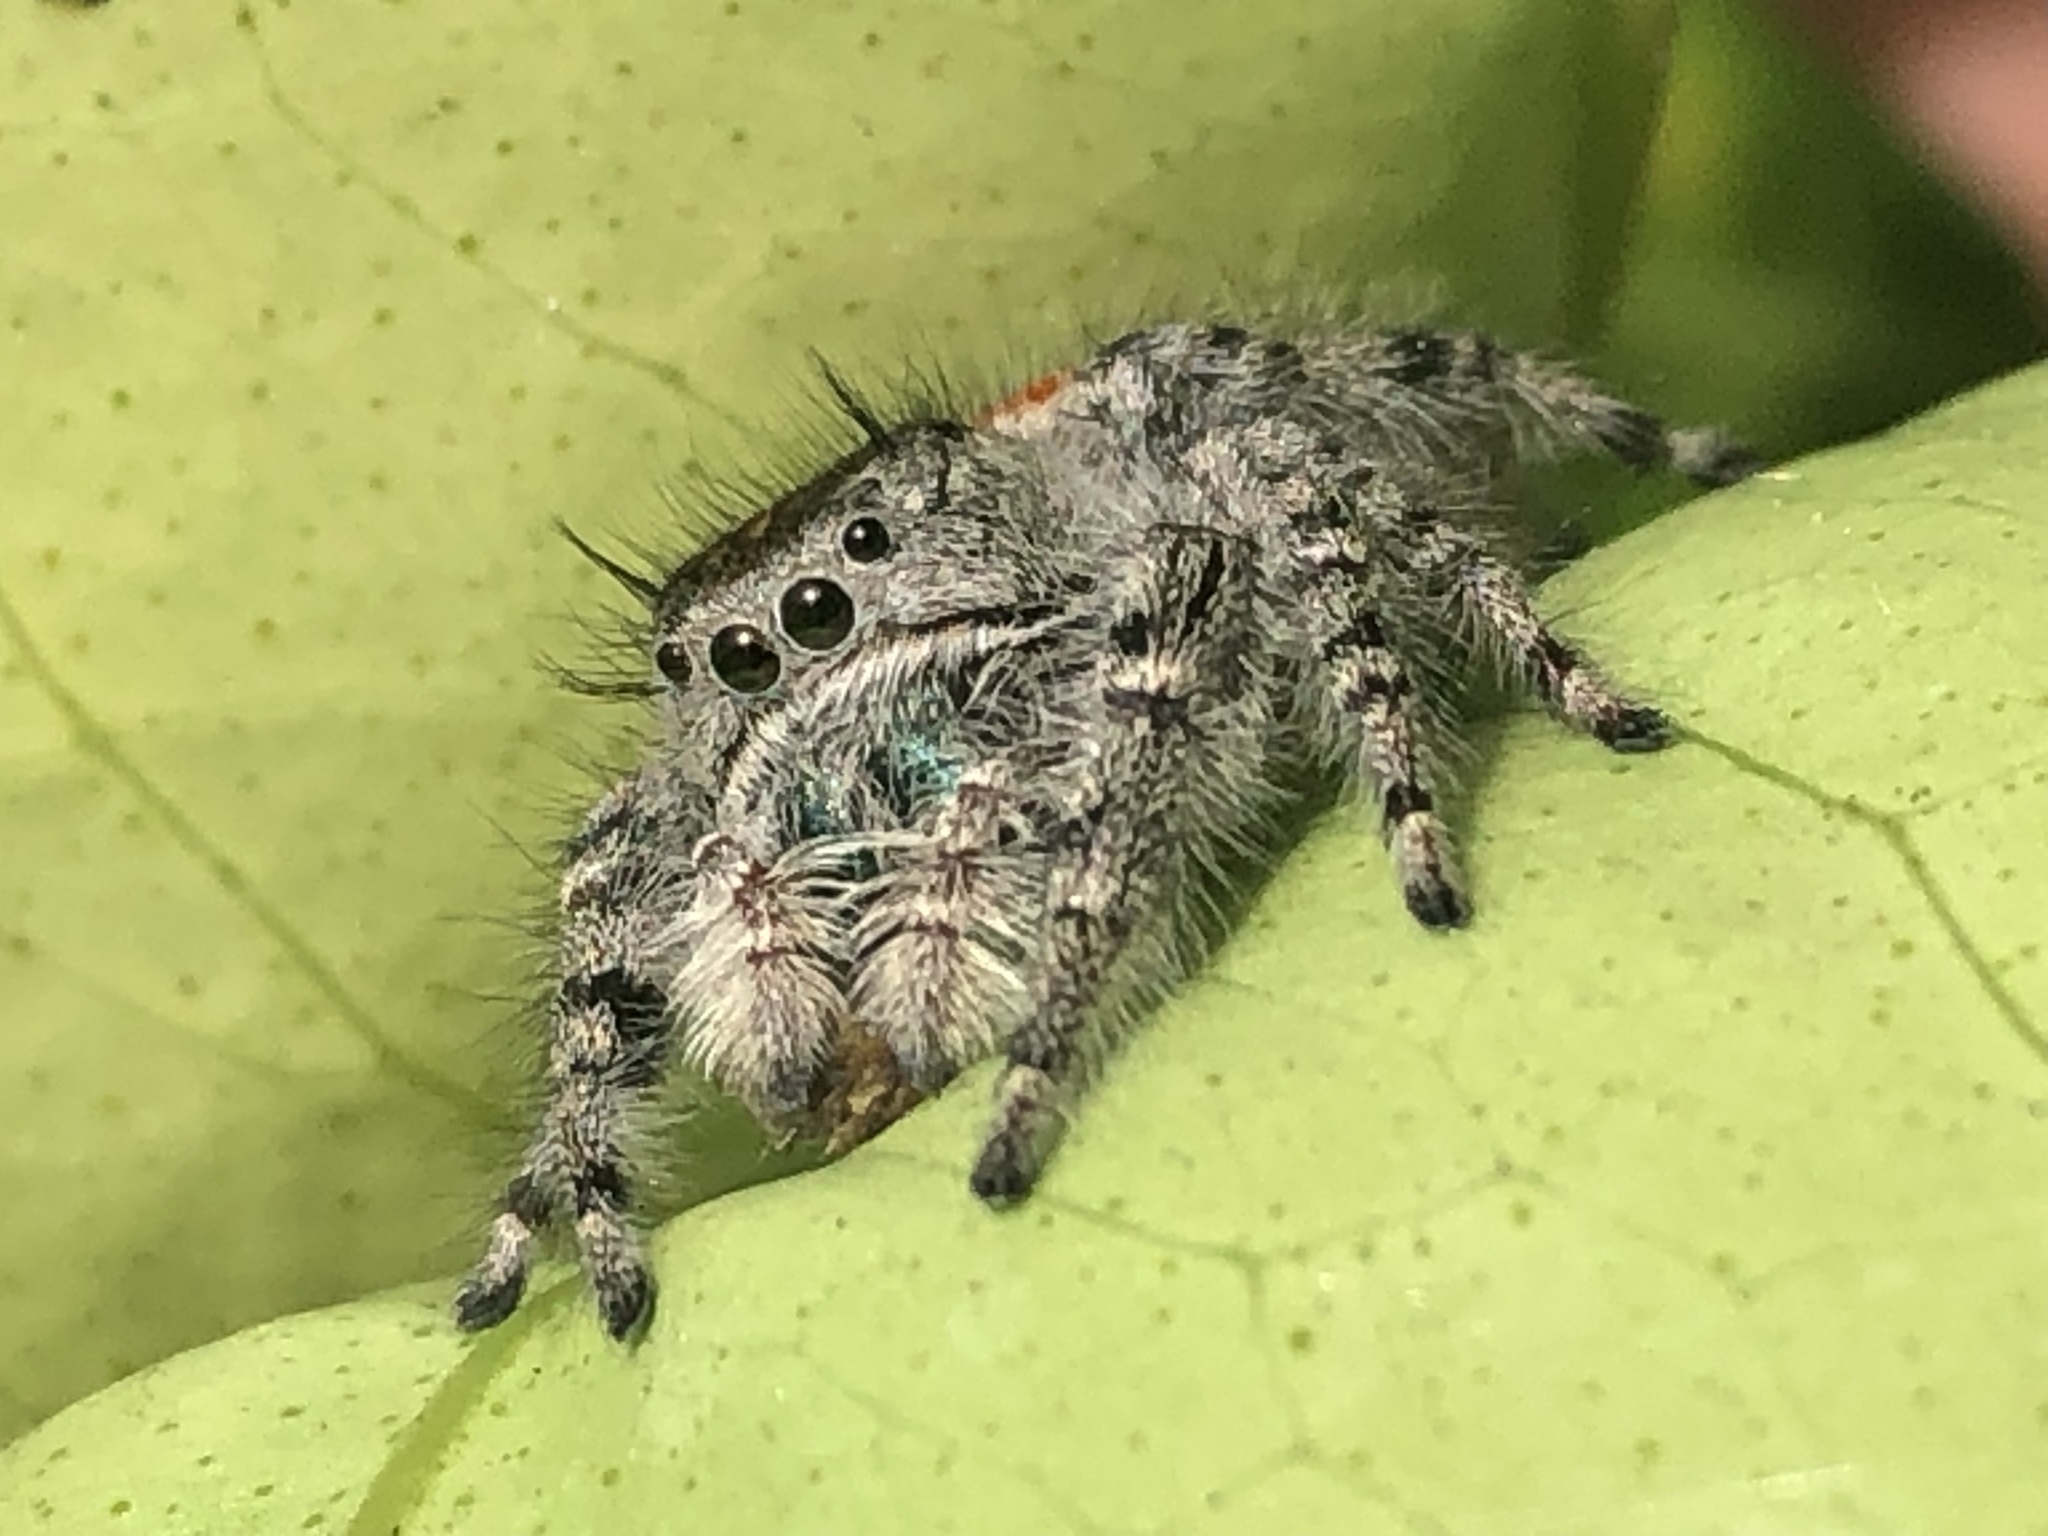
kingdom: Animalia
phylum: Arthropoda
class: Arachnida
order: Araneae
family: Salticidae
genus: Phidippus
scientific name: Phidippus adumbratus
